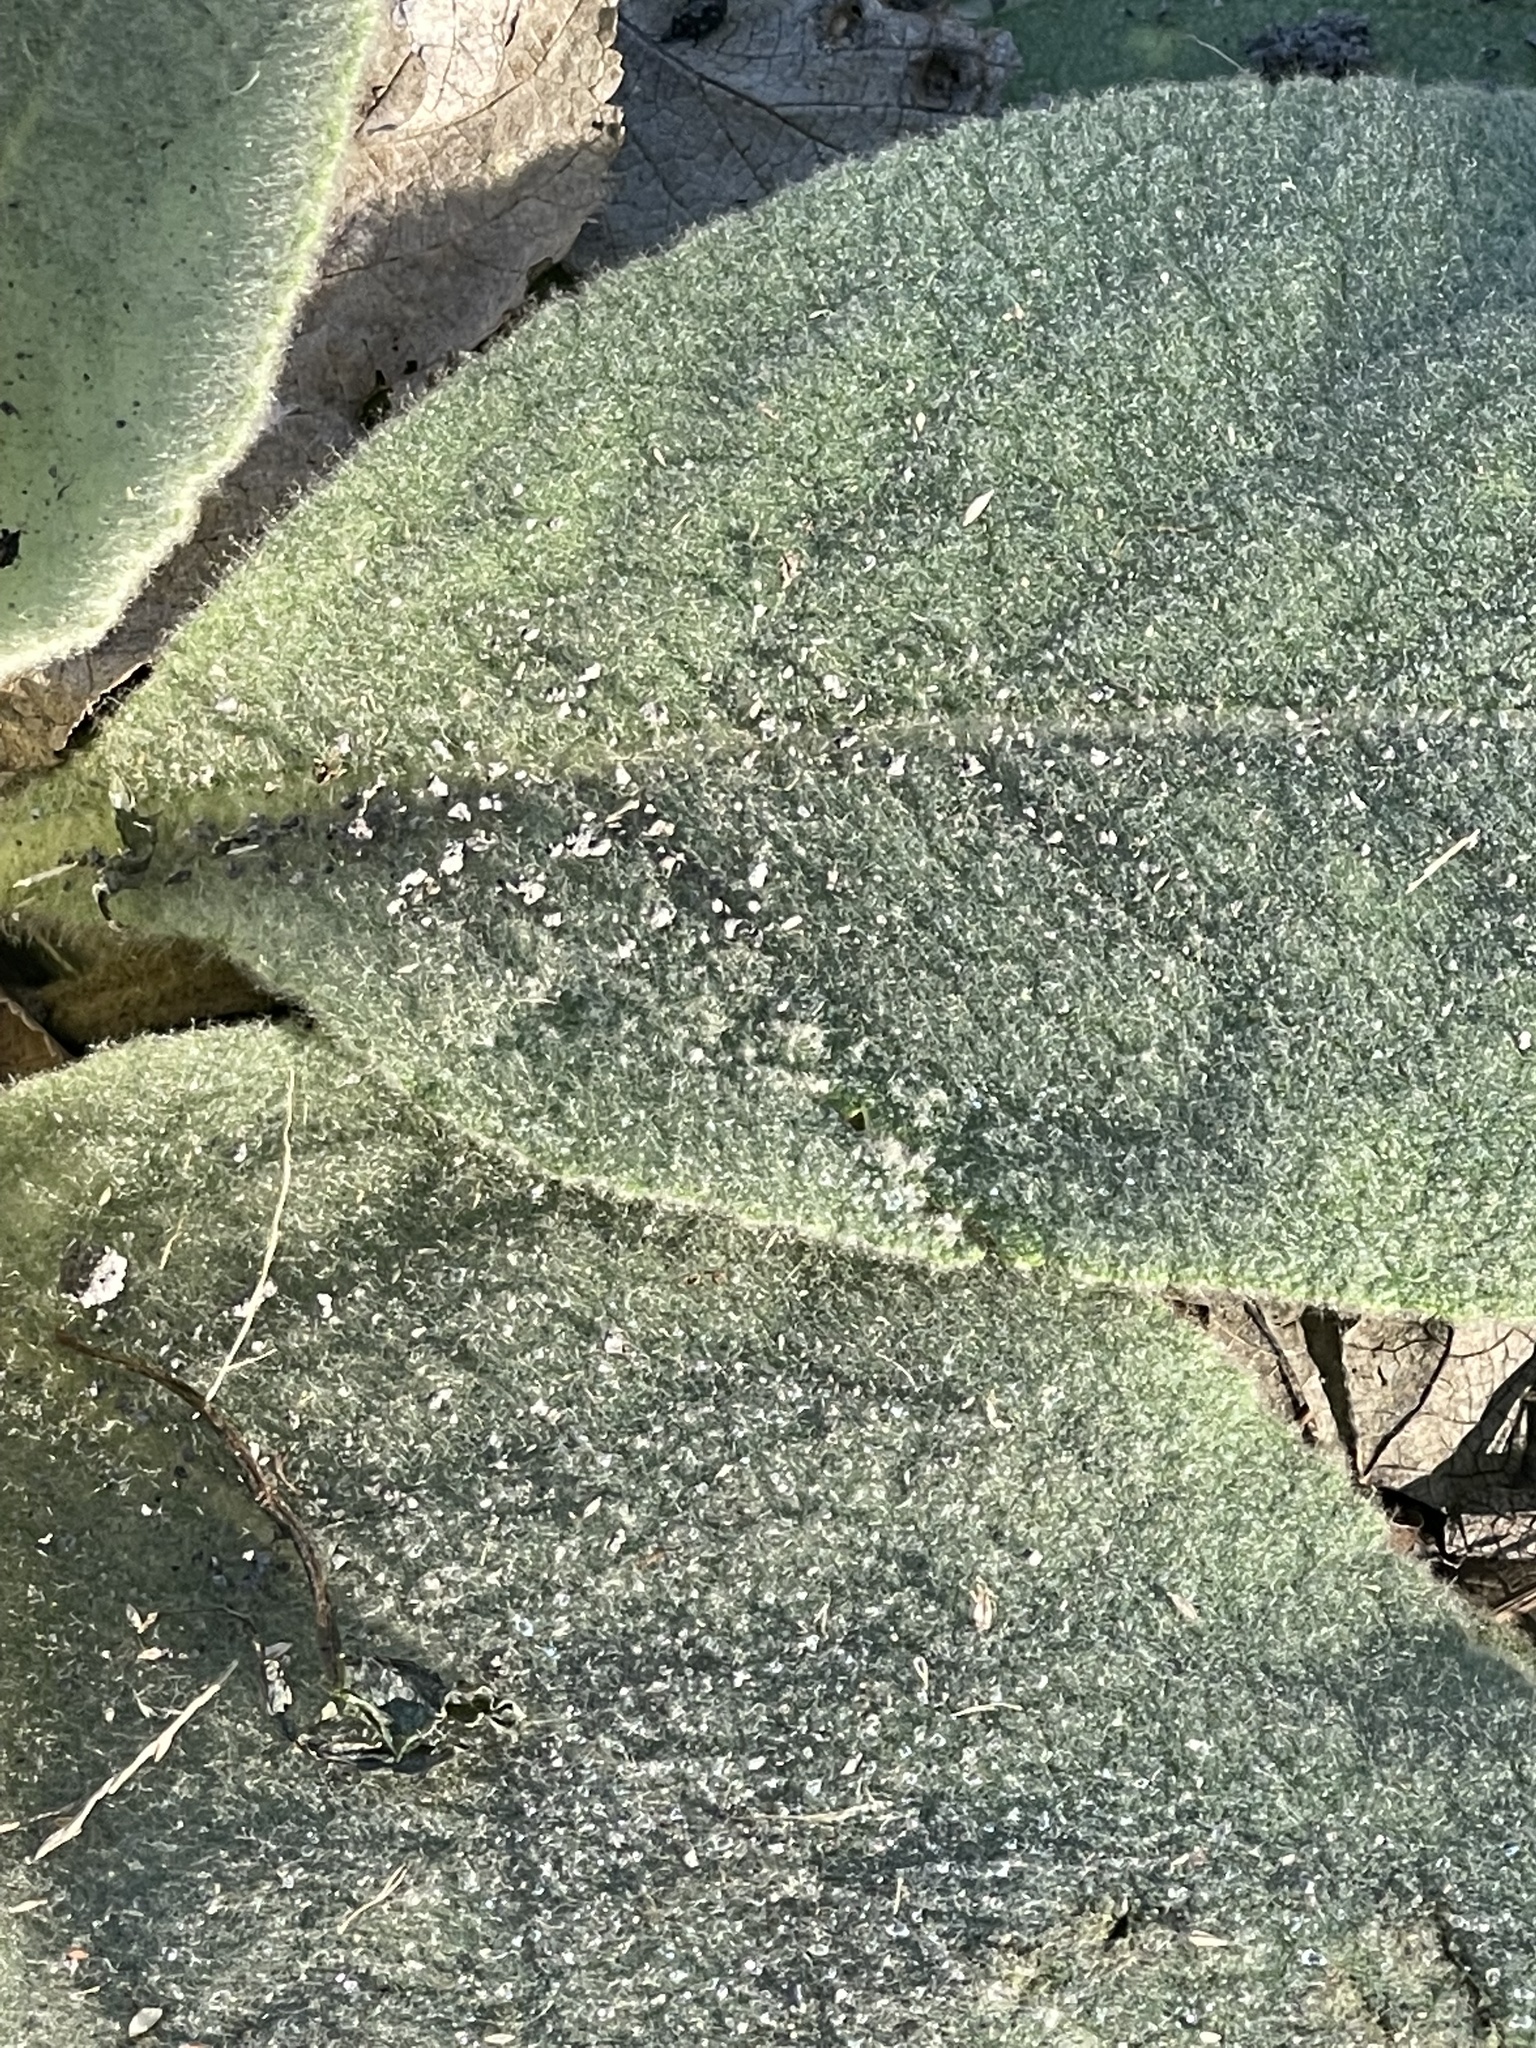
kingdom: Plantae
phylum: Tracheophyta
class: Magnoliopsida
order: Lamiales
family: Scrophulariaceae
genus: Verbascum
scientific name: Verbascum thapsus
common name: Common mullein
